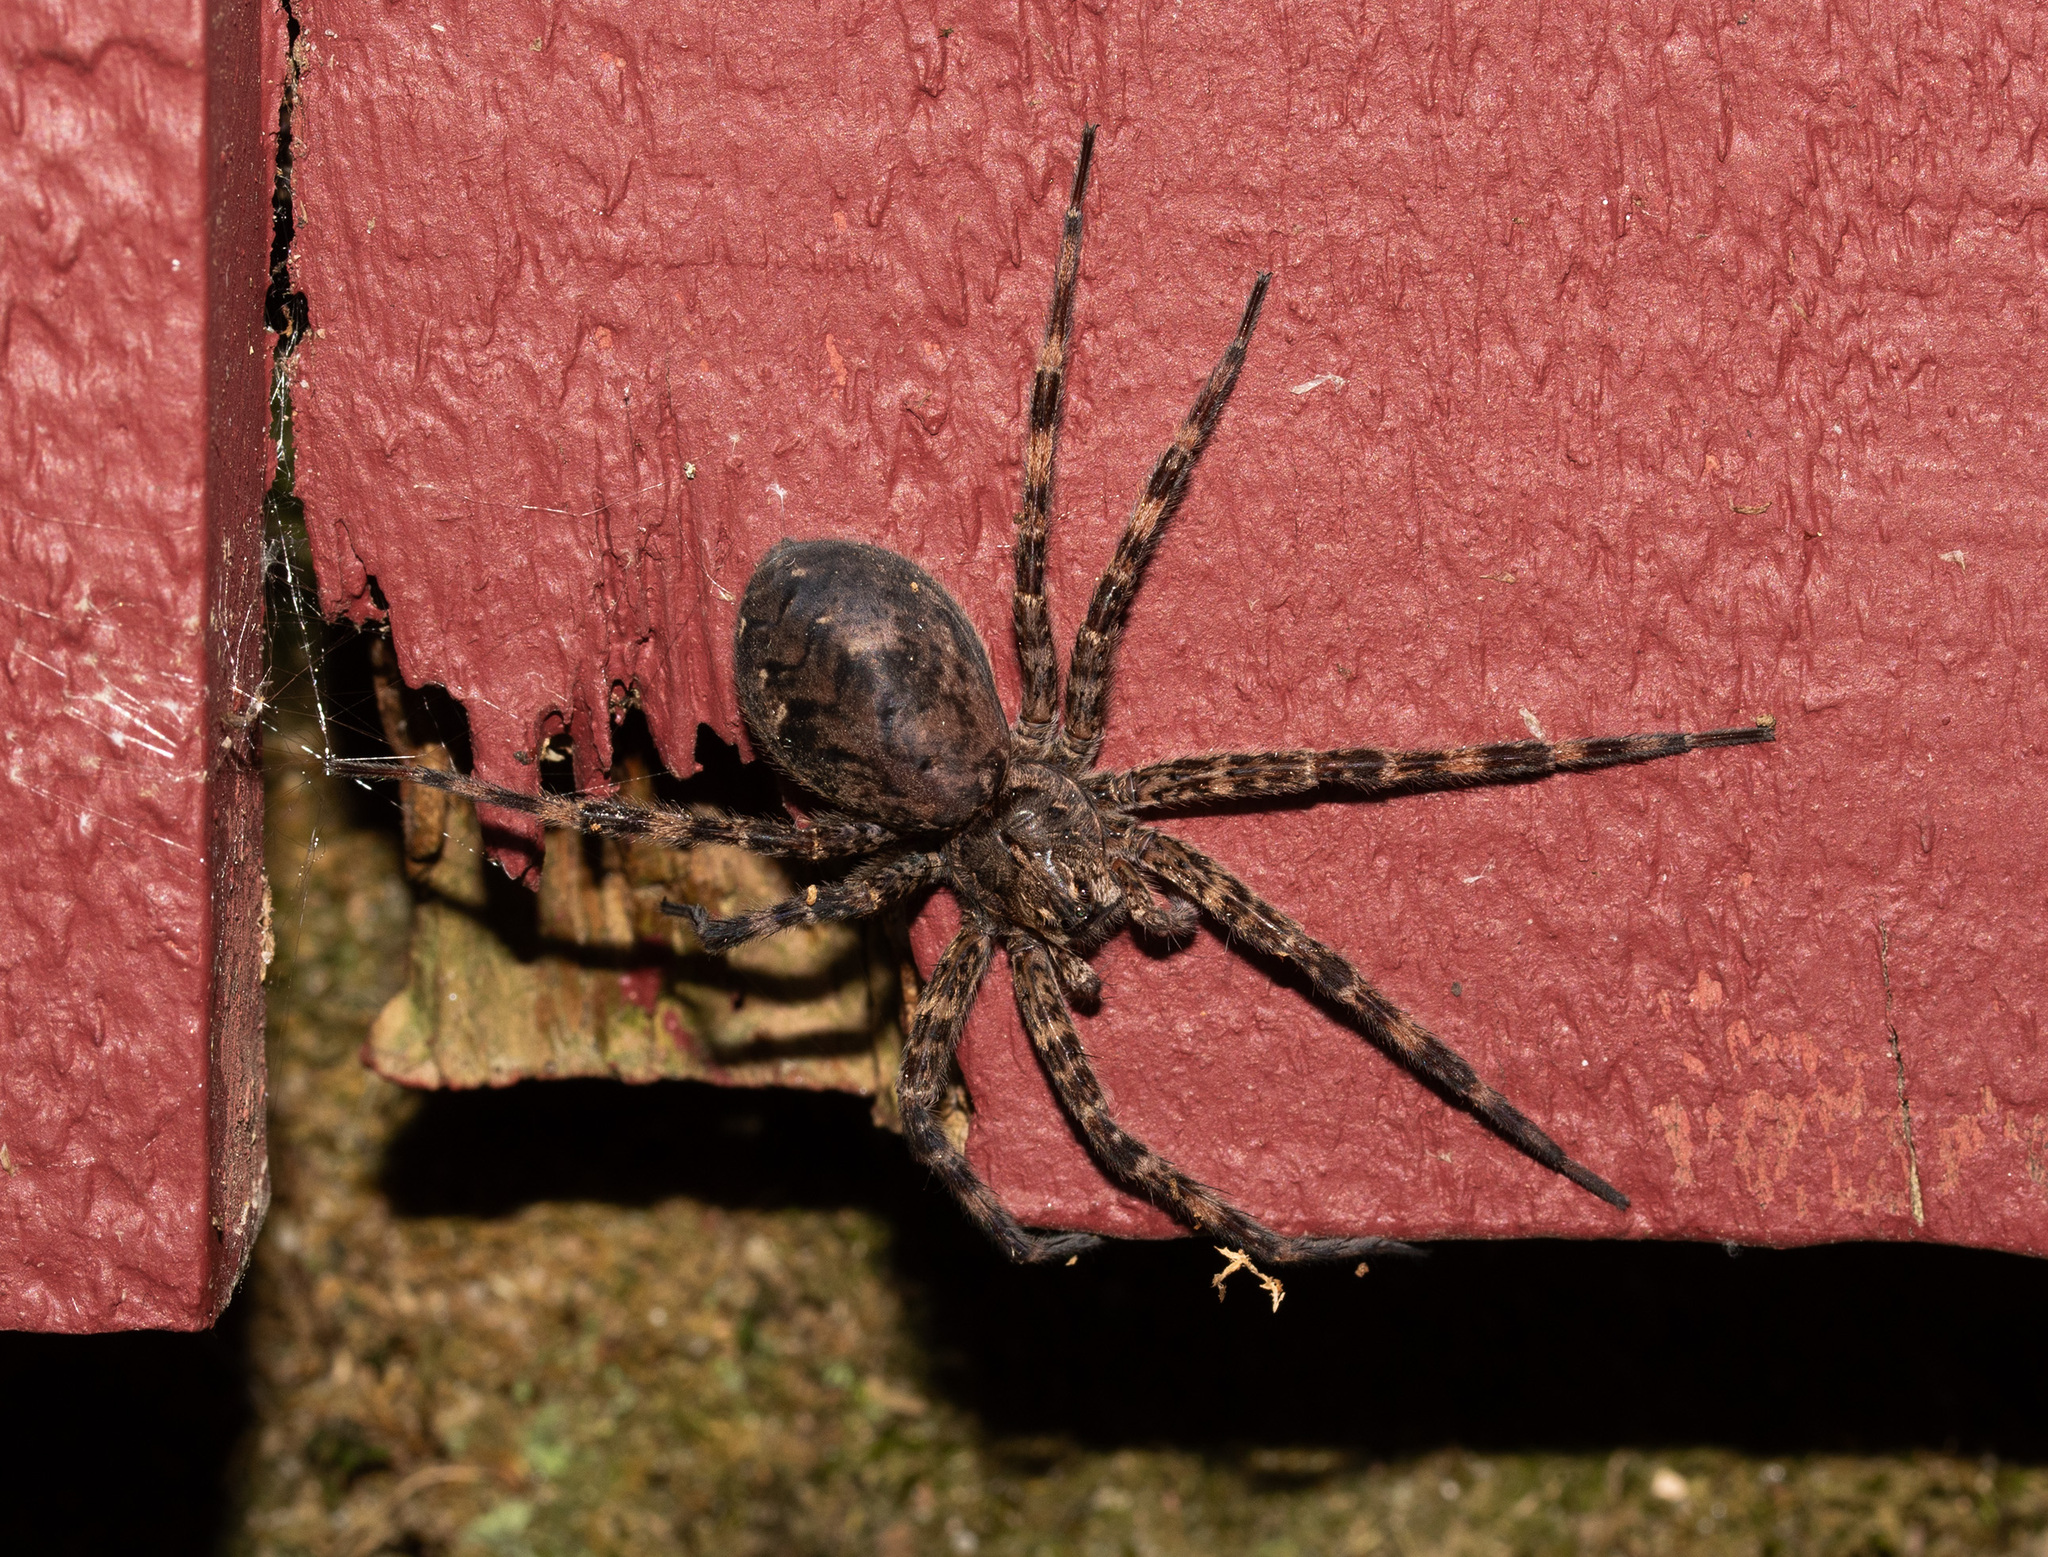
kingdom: Animalia
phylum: Arthropoda
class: Arachnida
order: Araneae
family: Pisauridae
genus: Dolomedes
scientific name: Dolomedes tenebrosus
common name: Dark fishing spider
